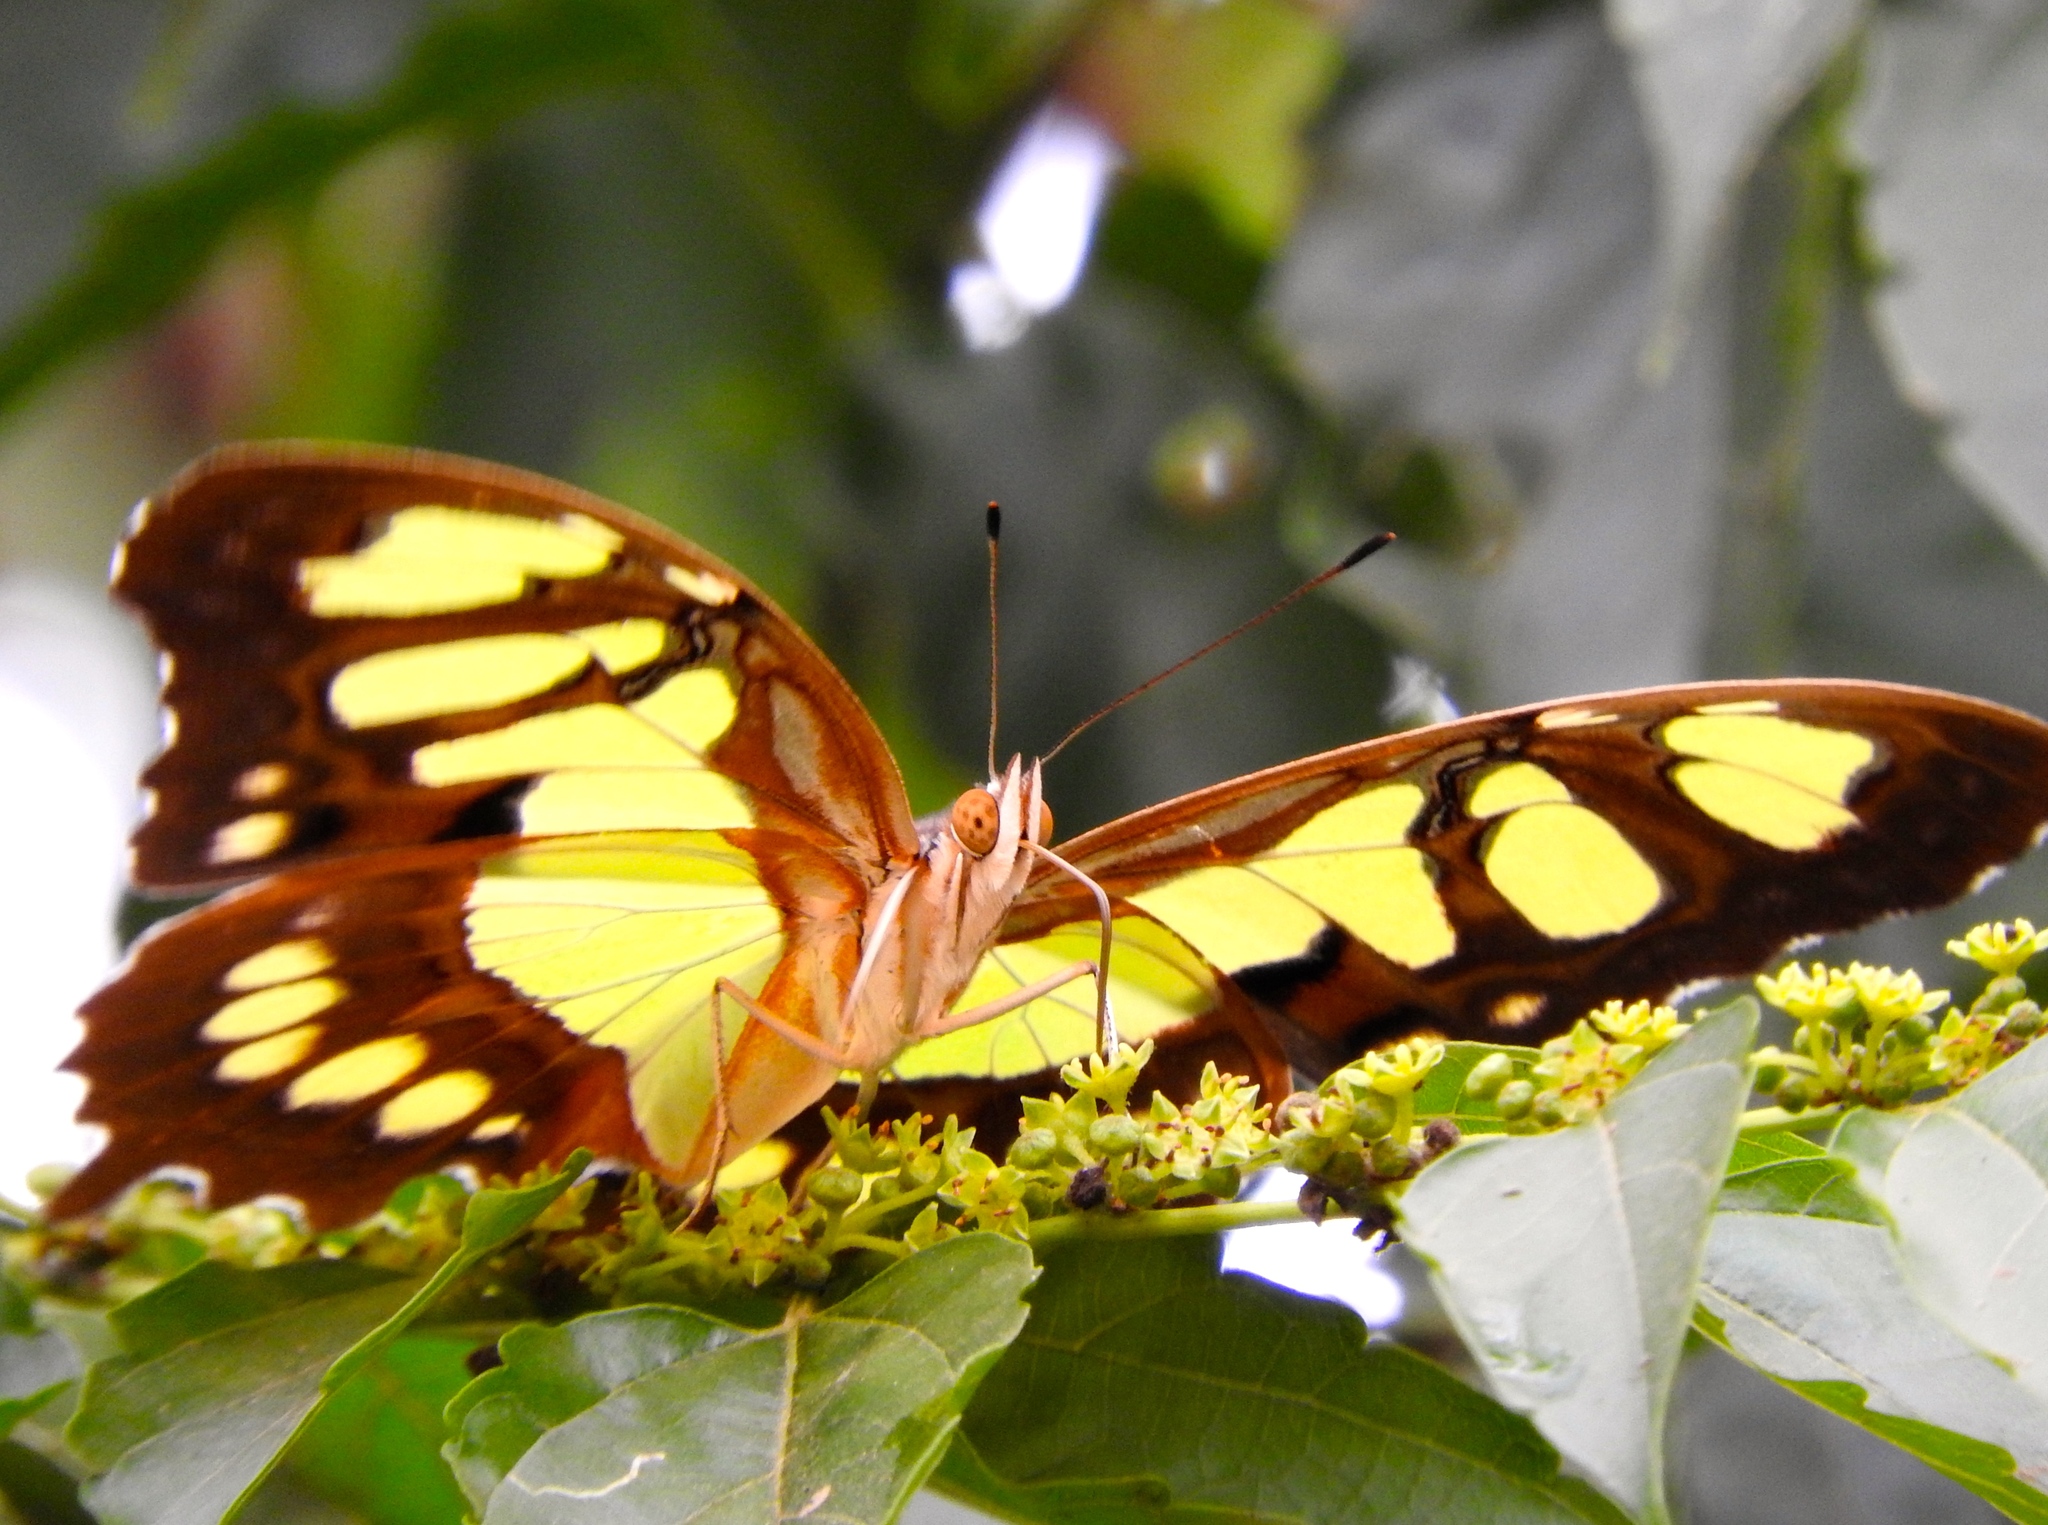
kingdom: Animalia
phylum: Arthropoda
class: Insecta
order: Lepidoptera
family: Nymphalidae
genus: Siproeta
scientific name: Siproeta stelenes
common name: Malachite
